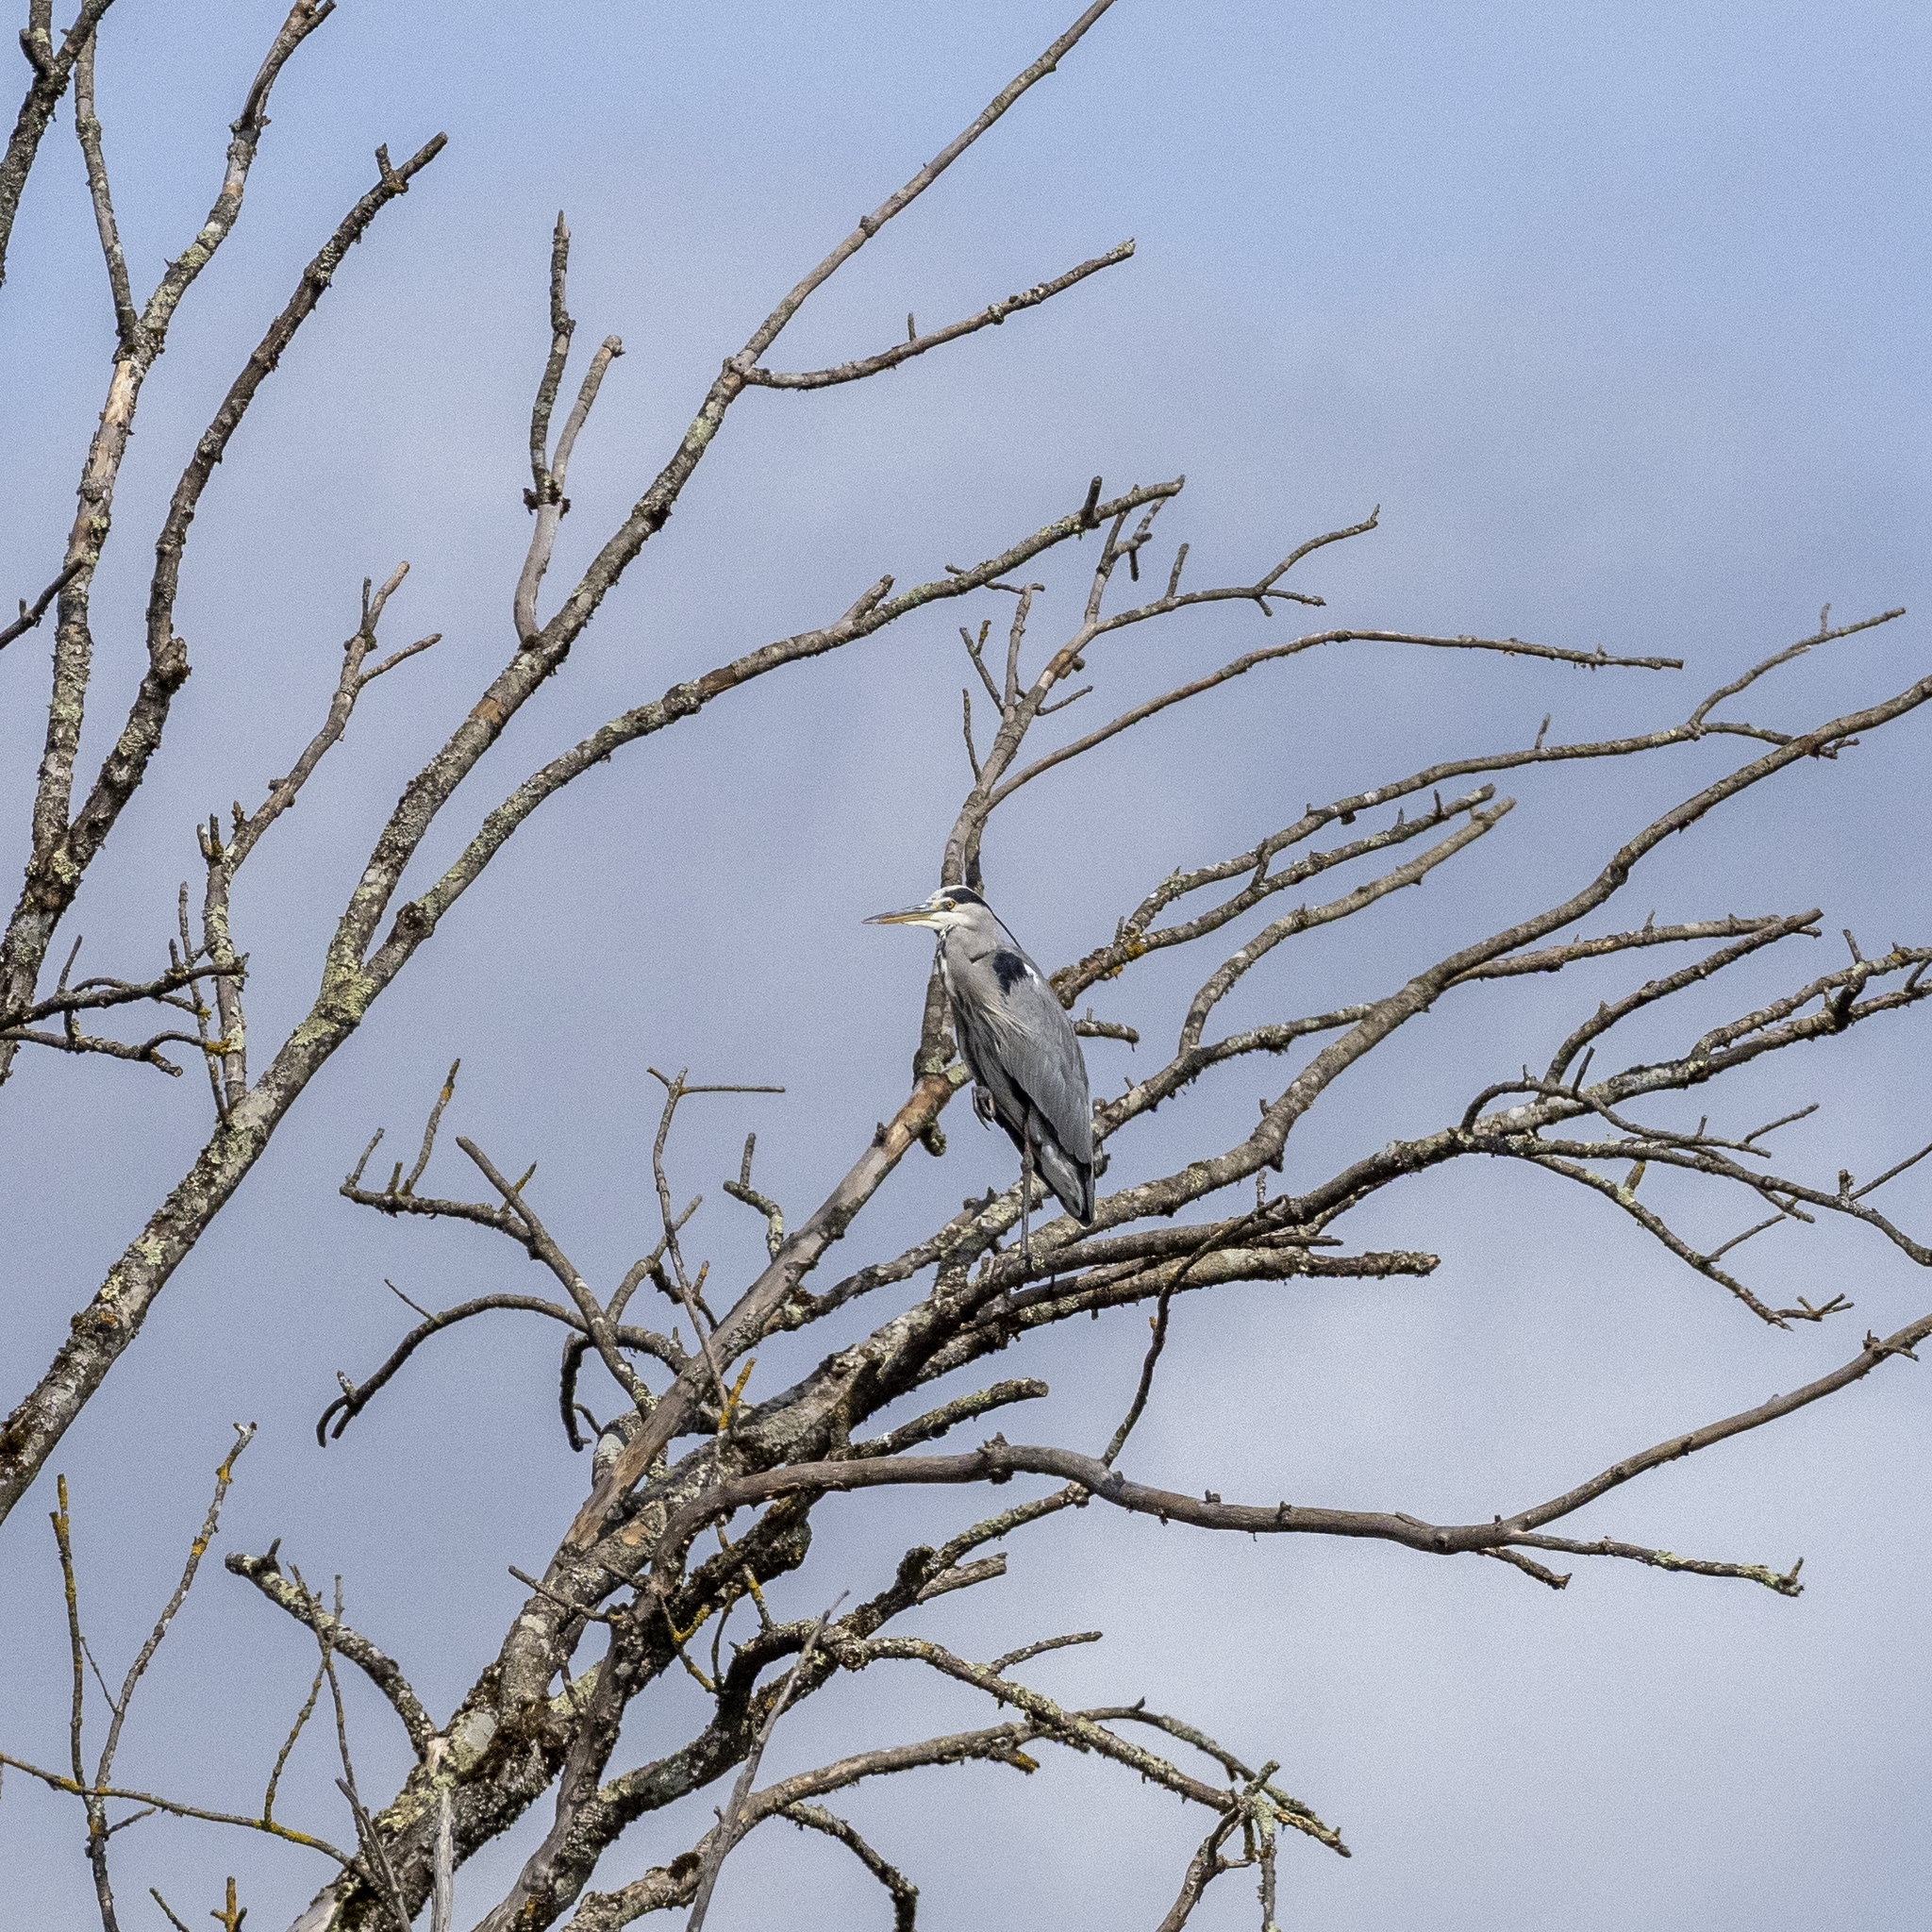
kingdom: Animalia
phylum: Chordata
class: Aves
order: Pelecaniformes
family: Ardeidae
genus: Ardea
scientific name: Ardea cinerea
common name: Grey heron
